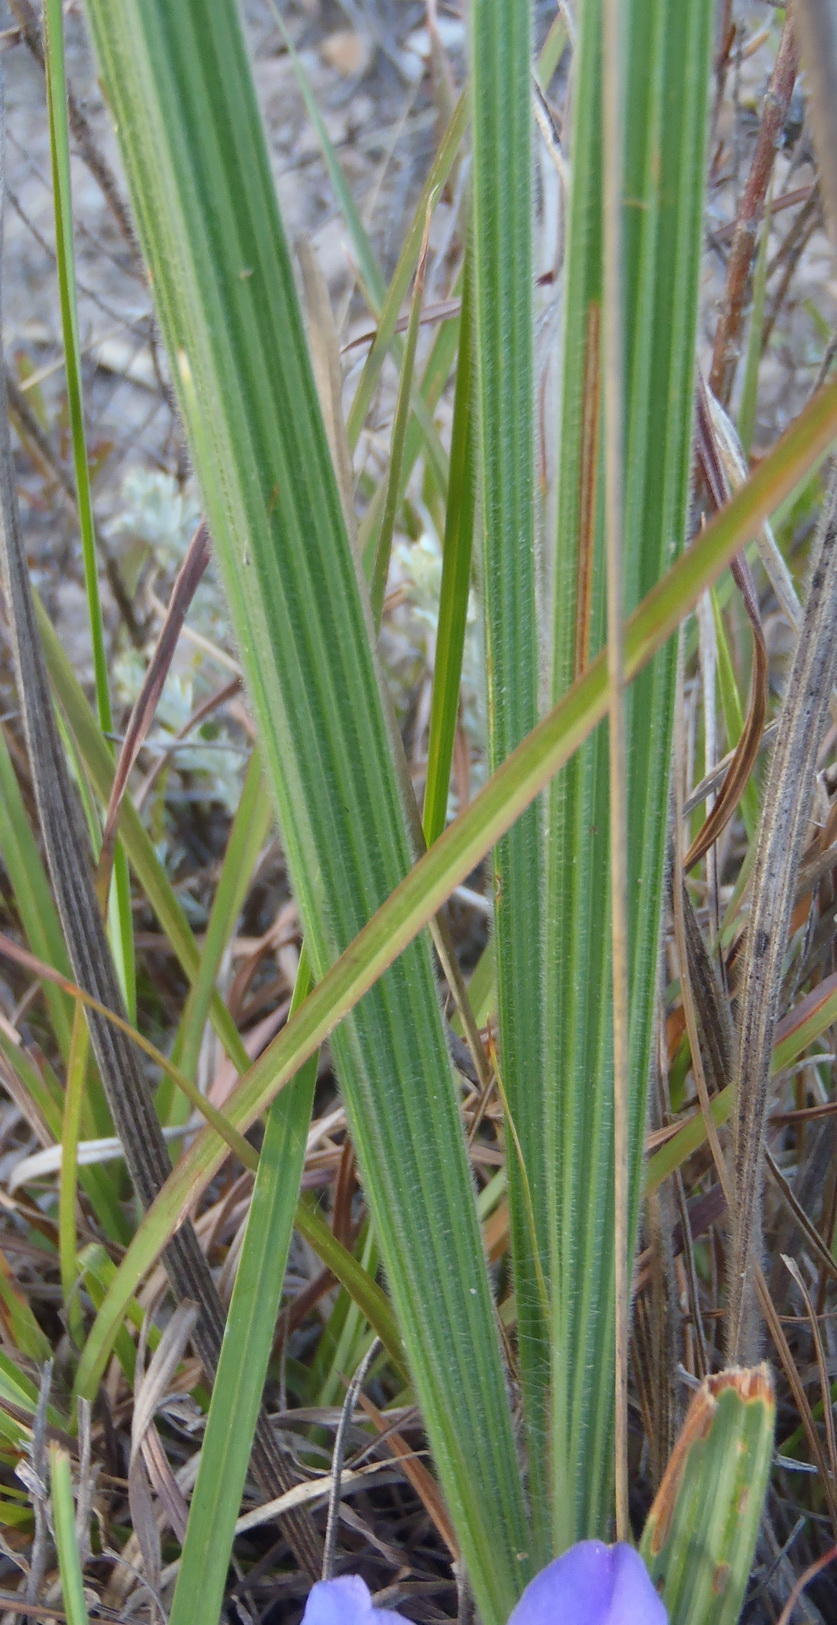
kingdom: Plantae
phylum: Tracheophyta
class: Liliopsida
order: Asparagales
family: Iridaceae
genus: Babiana
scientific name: Babiana sambucina
